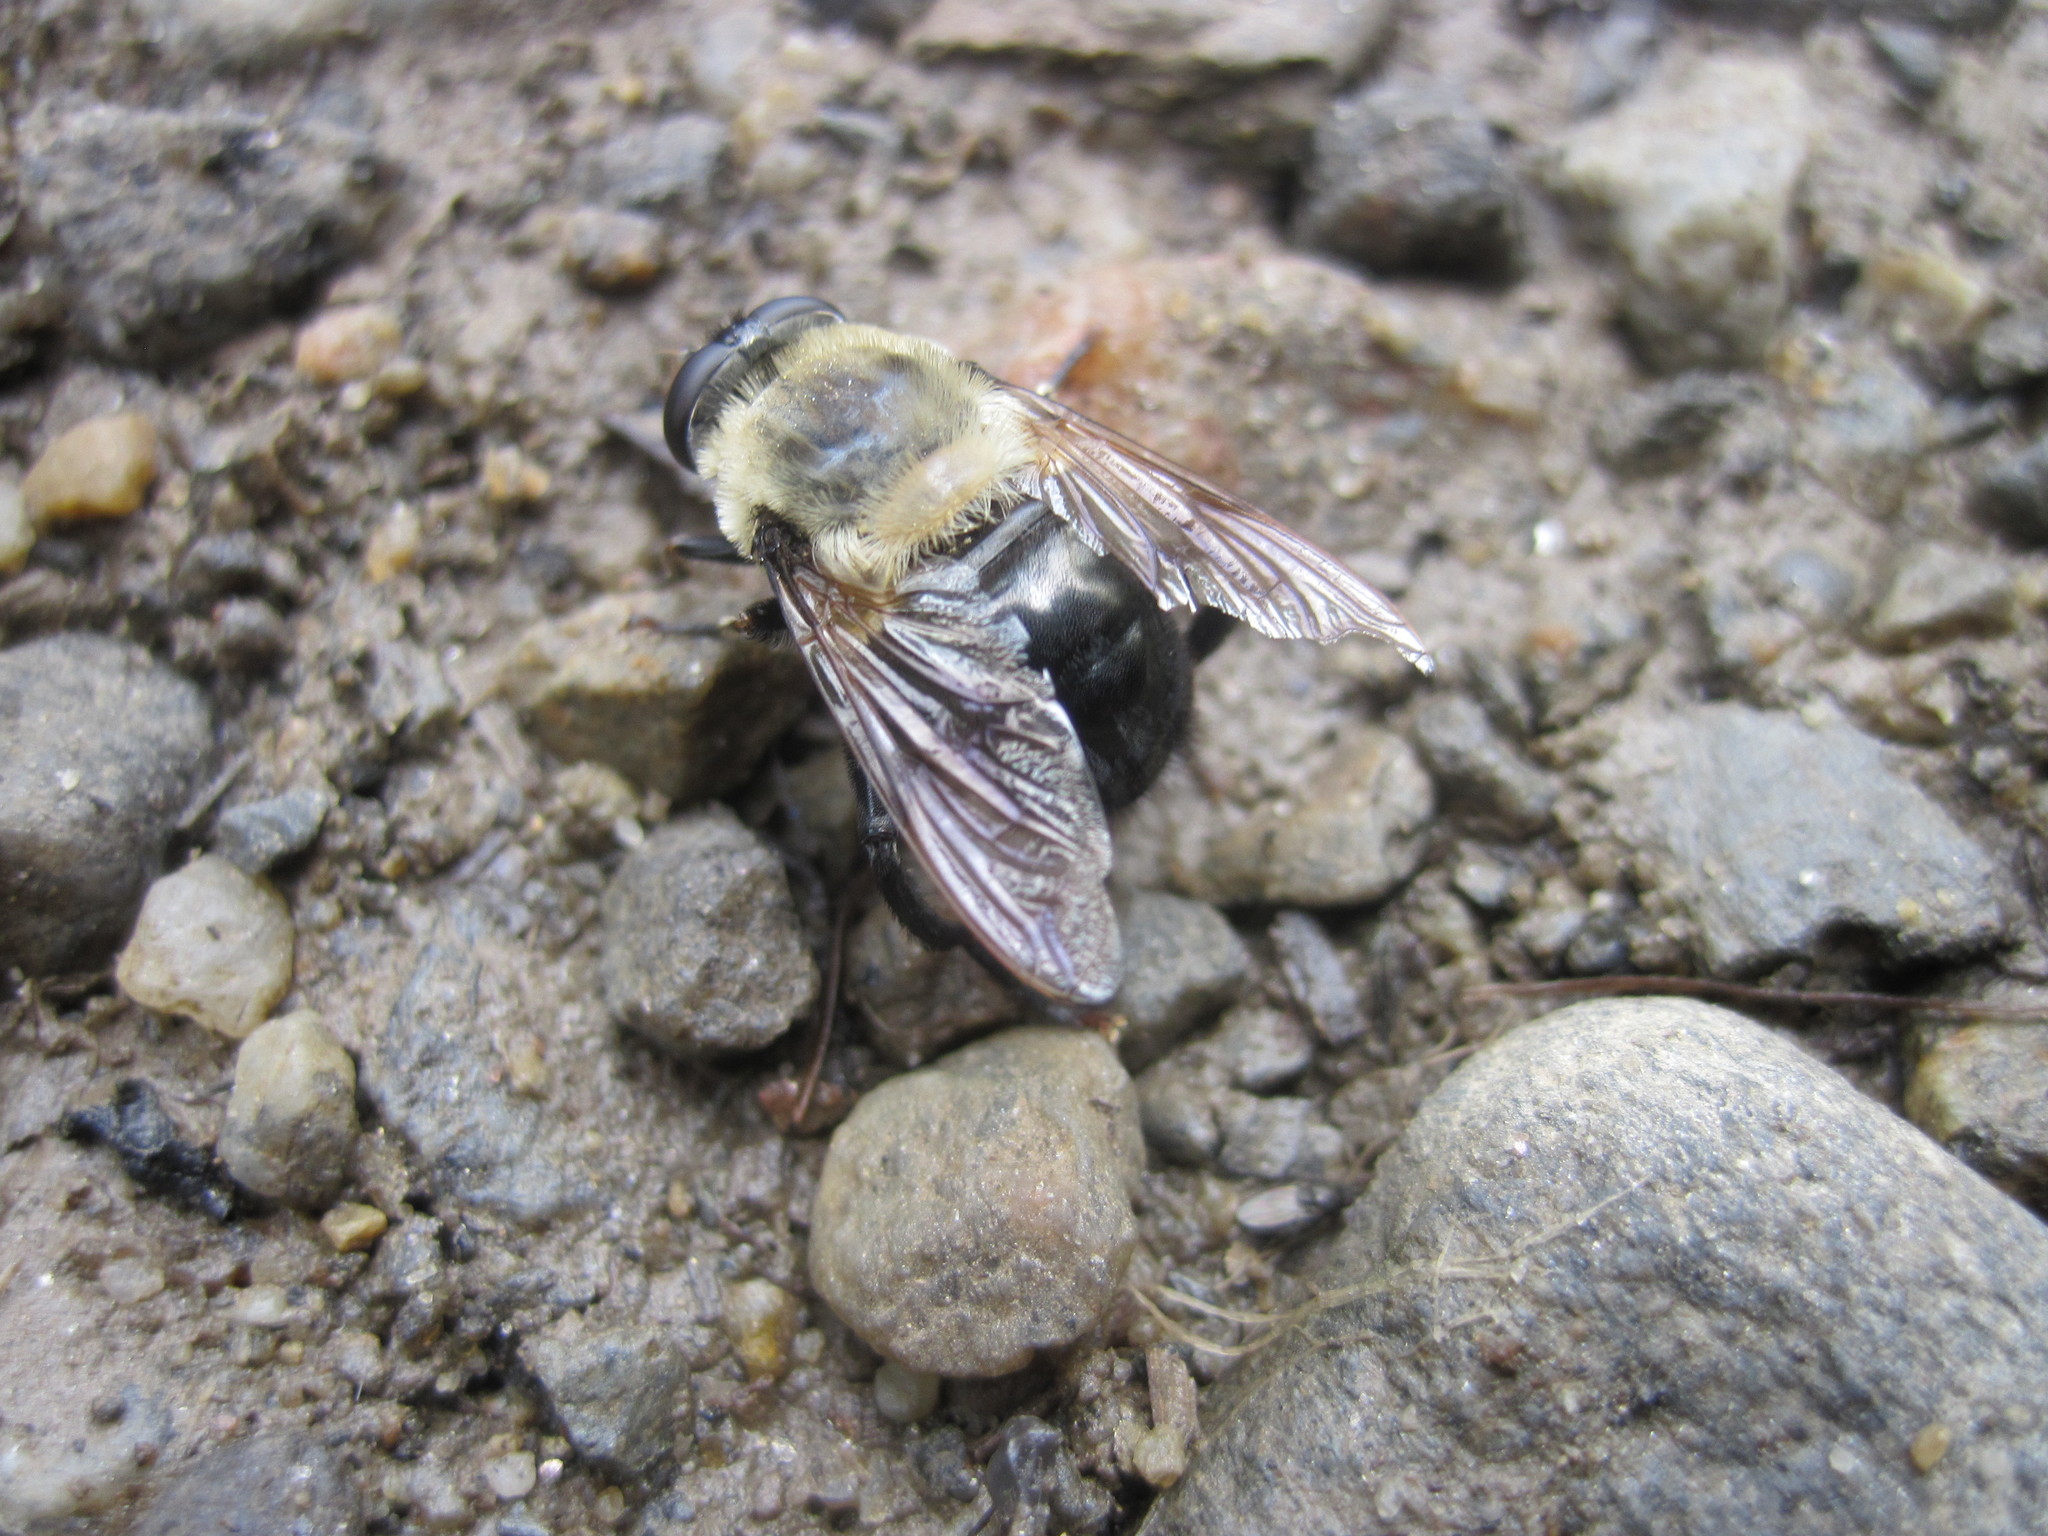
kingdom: Animalia
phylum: Arthropoda
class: Insecta
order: Diptera
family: Syrphidae
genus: Imatisma
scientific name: Imatisma bautias
